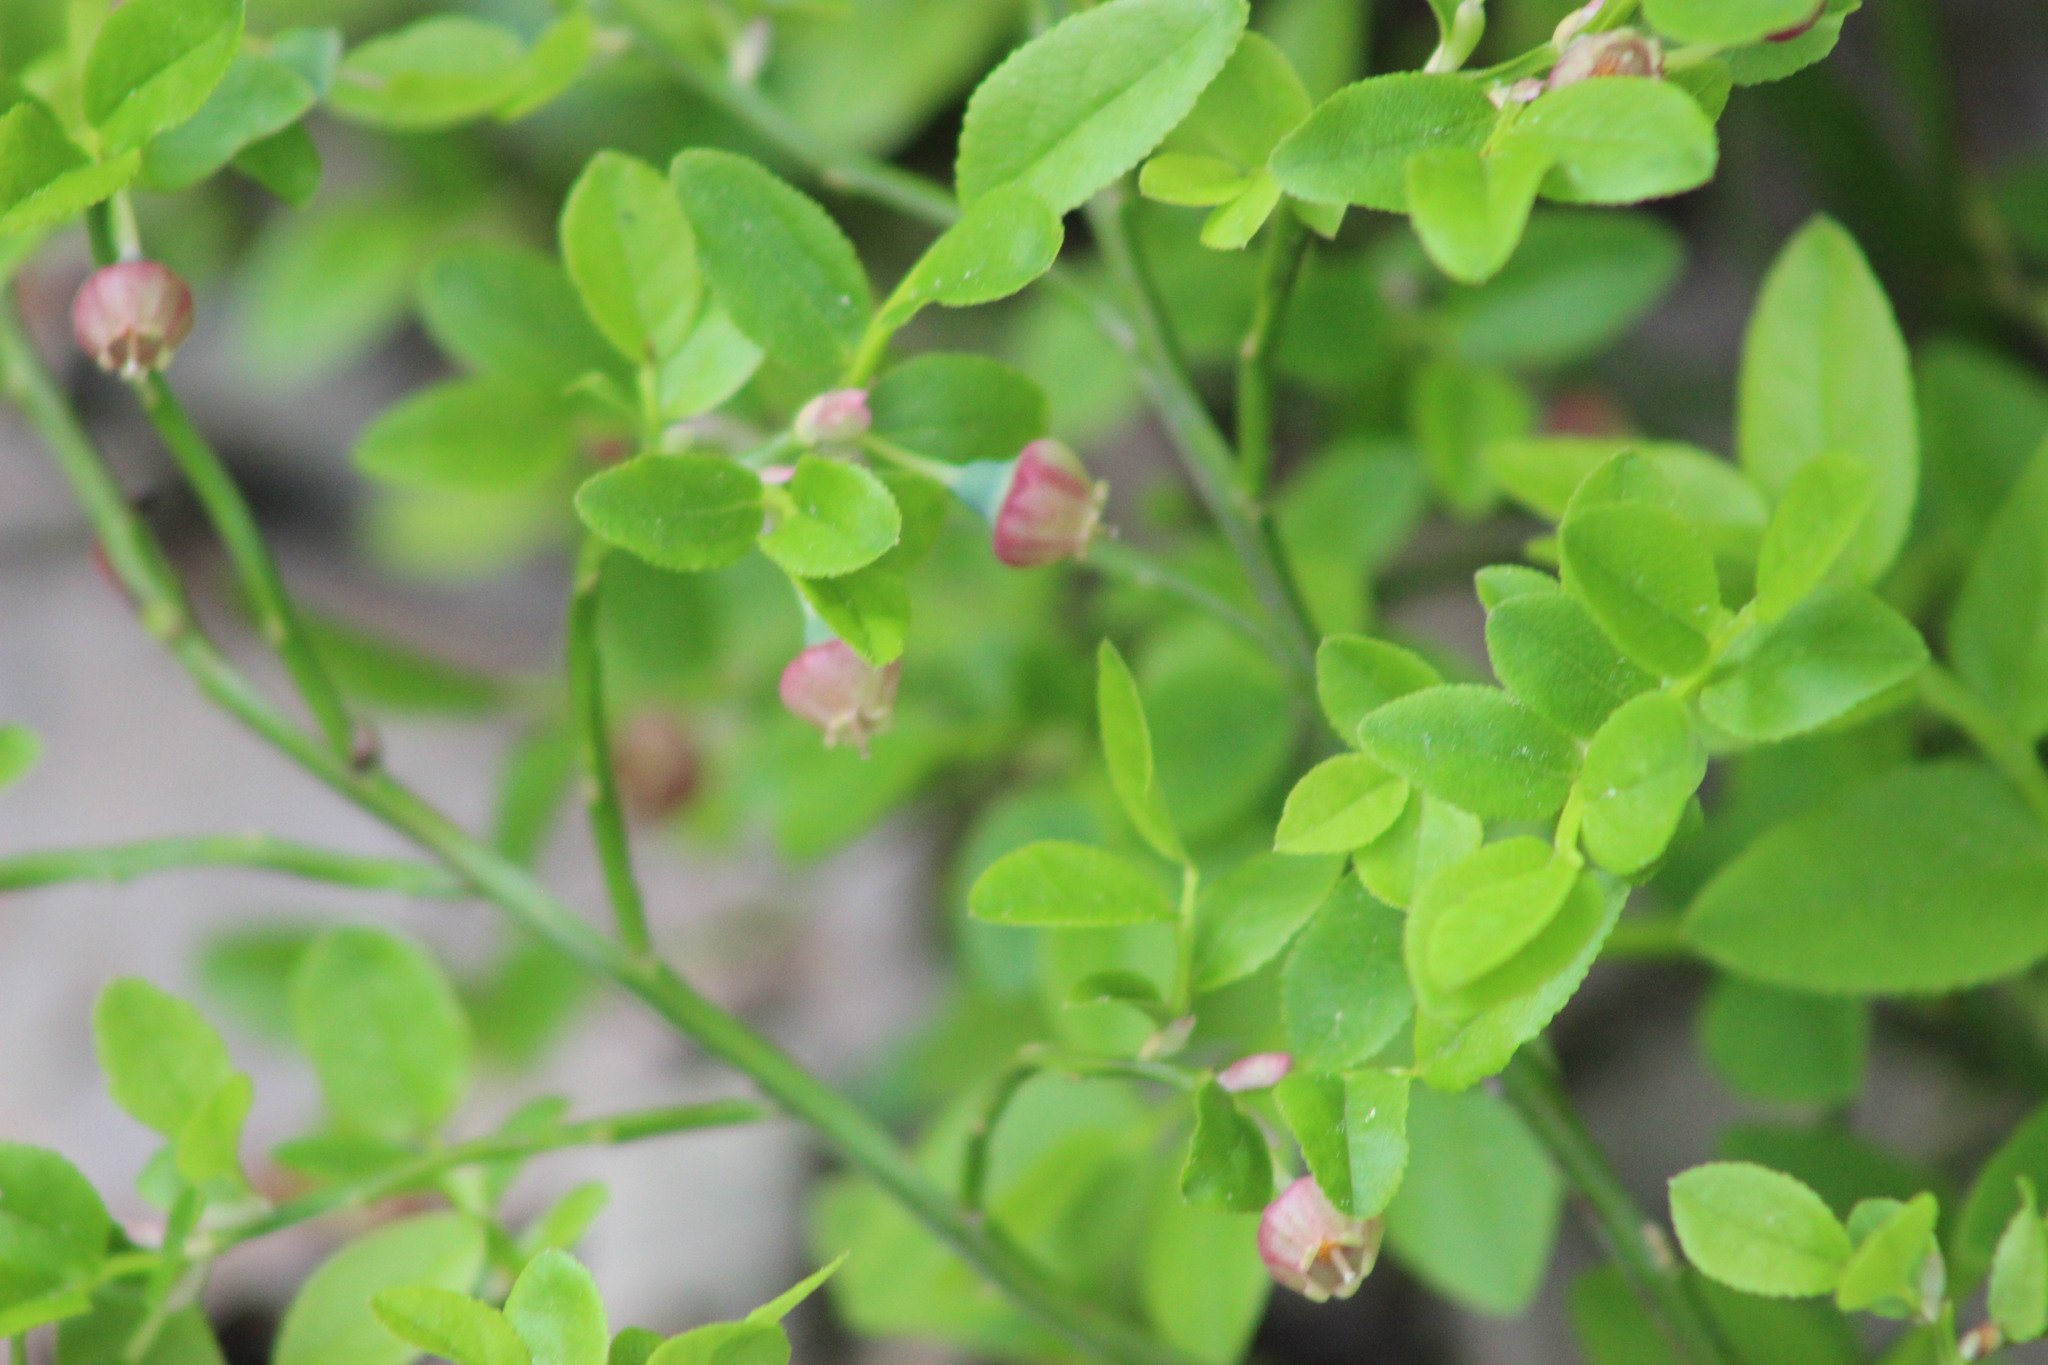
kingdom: Plantae
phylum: Tracheophyta
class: Magnoliopsida
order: Ericales
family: Ericaceae
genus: Vaccinium
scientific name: Vaccinium myrtillus
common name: Bilberry
